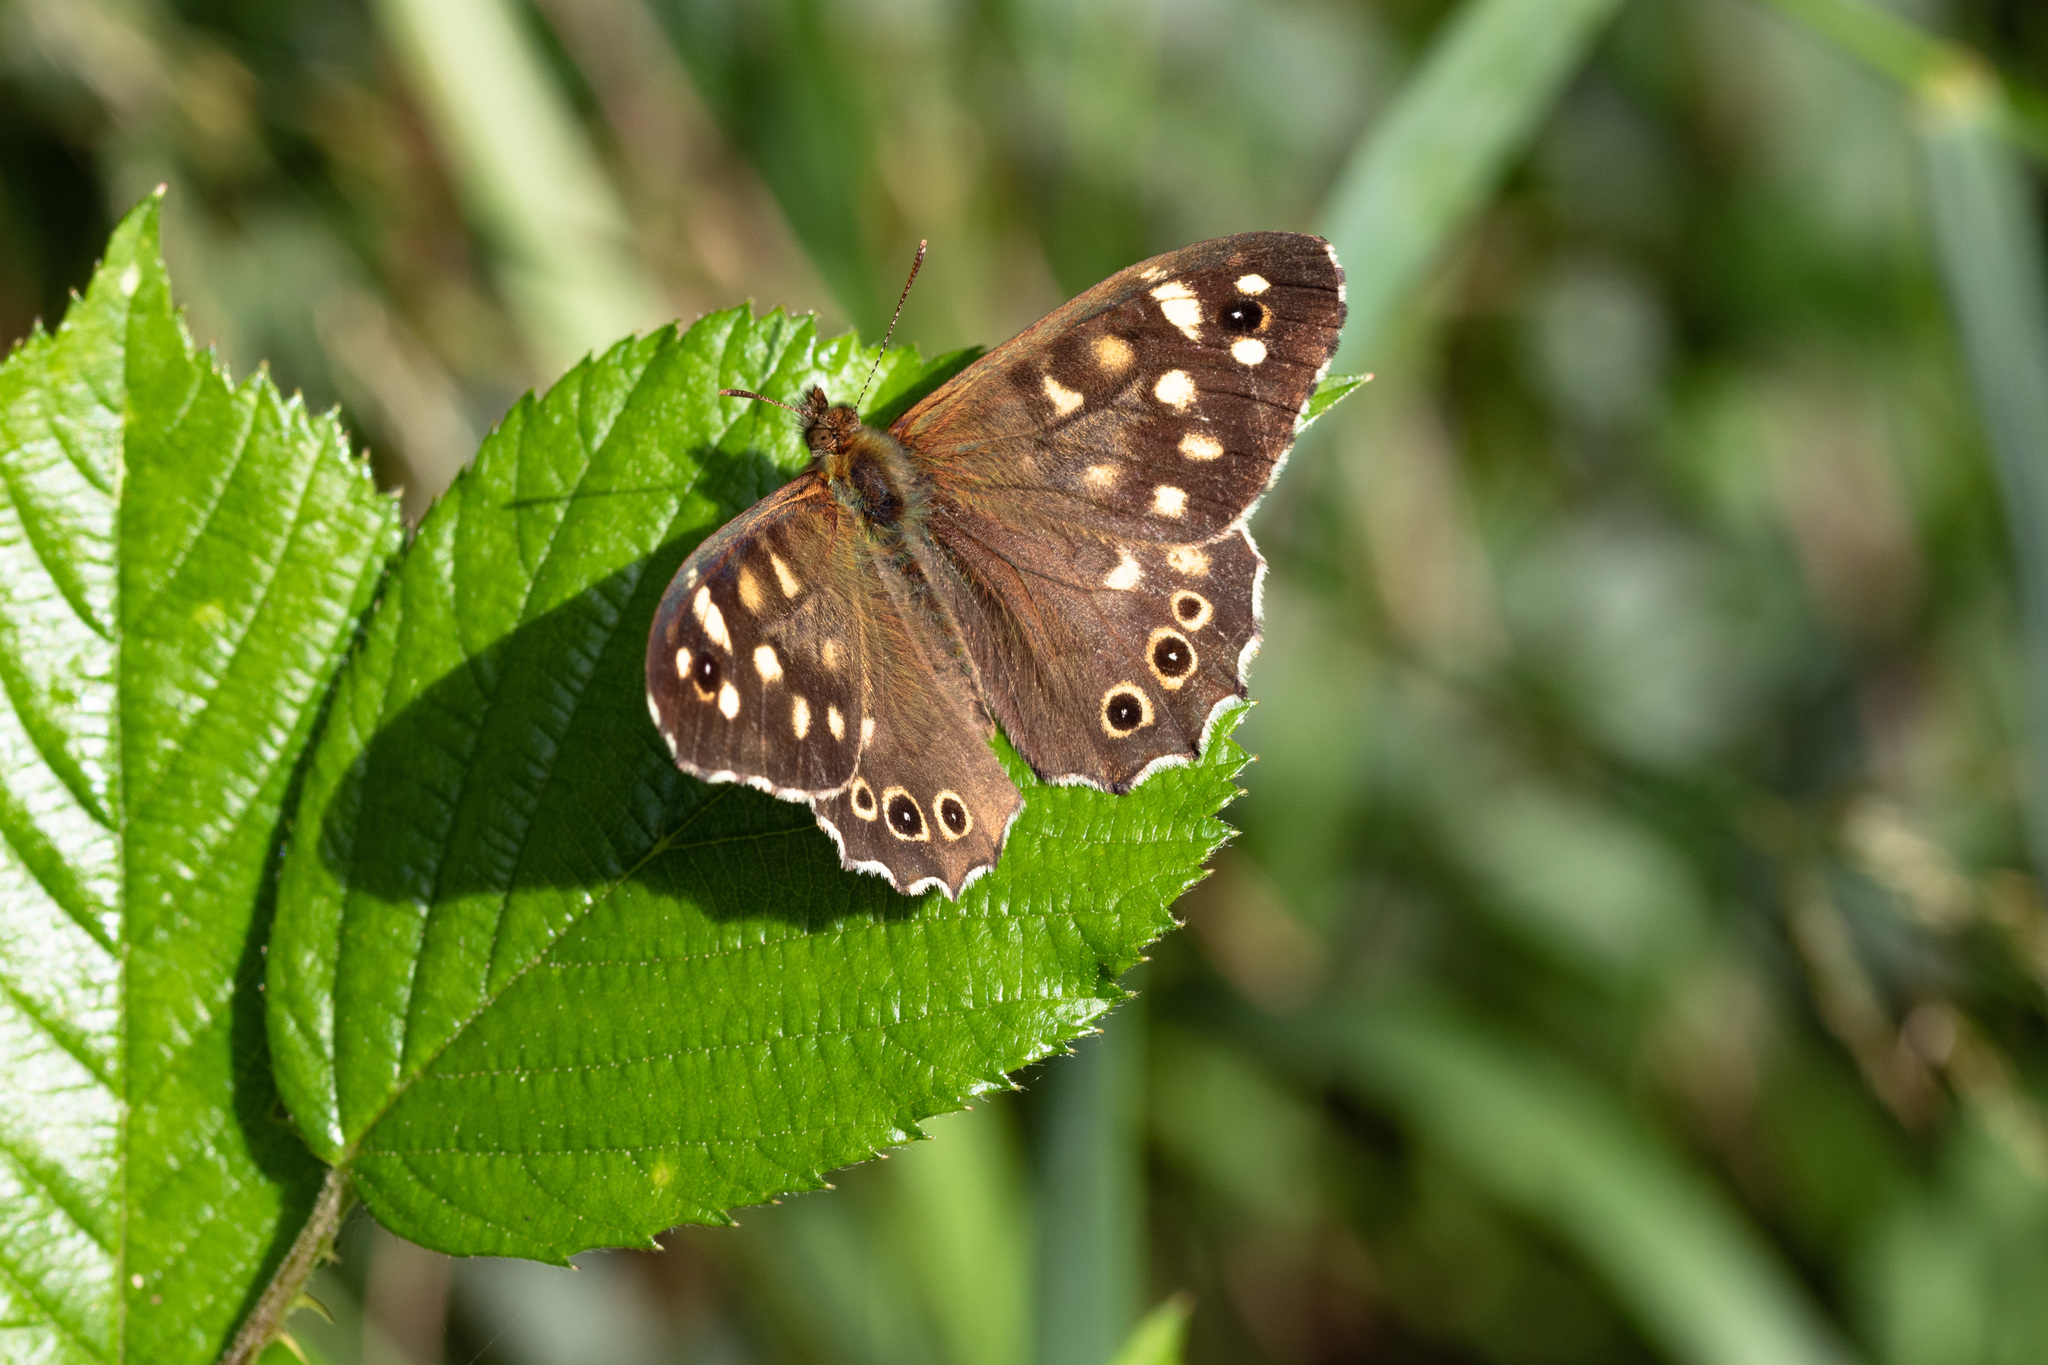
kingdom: Animalia
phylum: Arthropoda
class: Insecta
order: Lepidoptera
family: Nymphalidae
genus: Pararge
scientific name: Pararge aegeria
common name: Speckled wood
